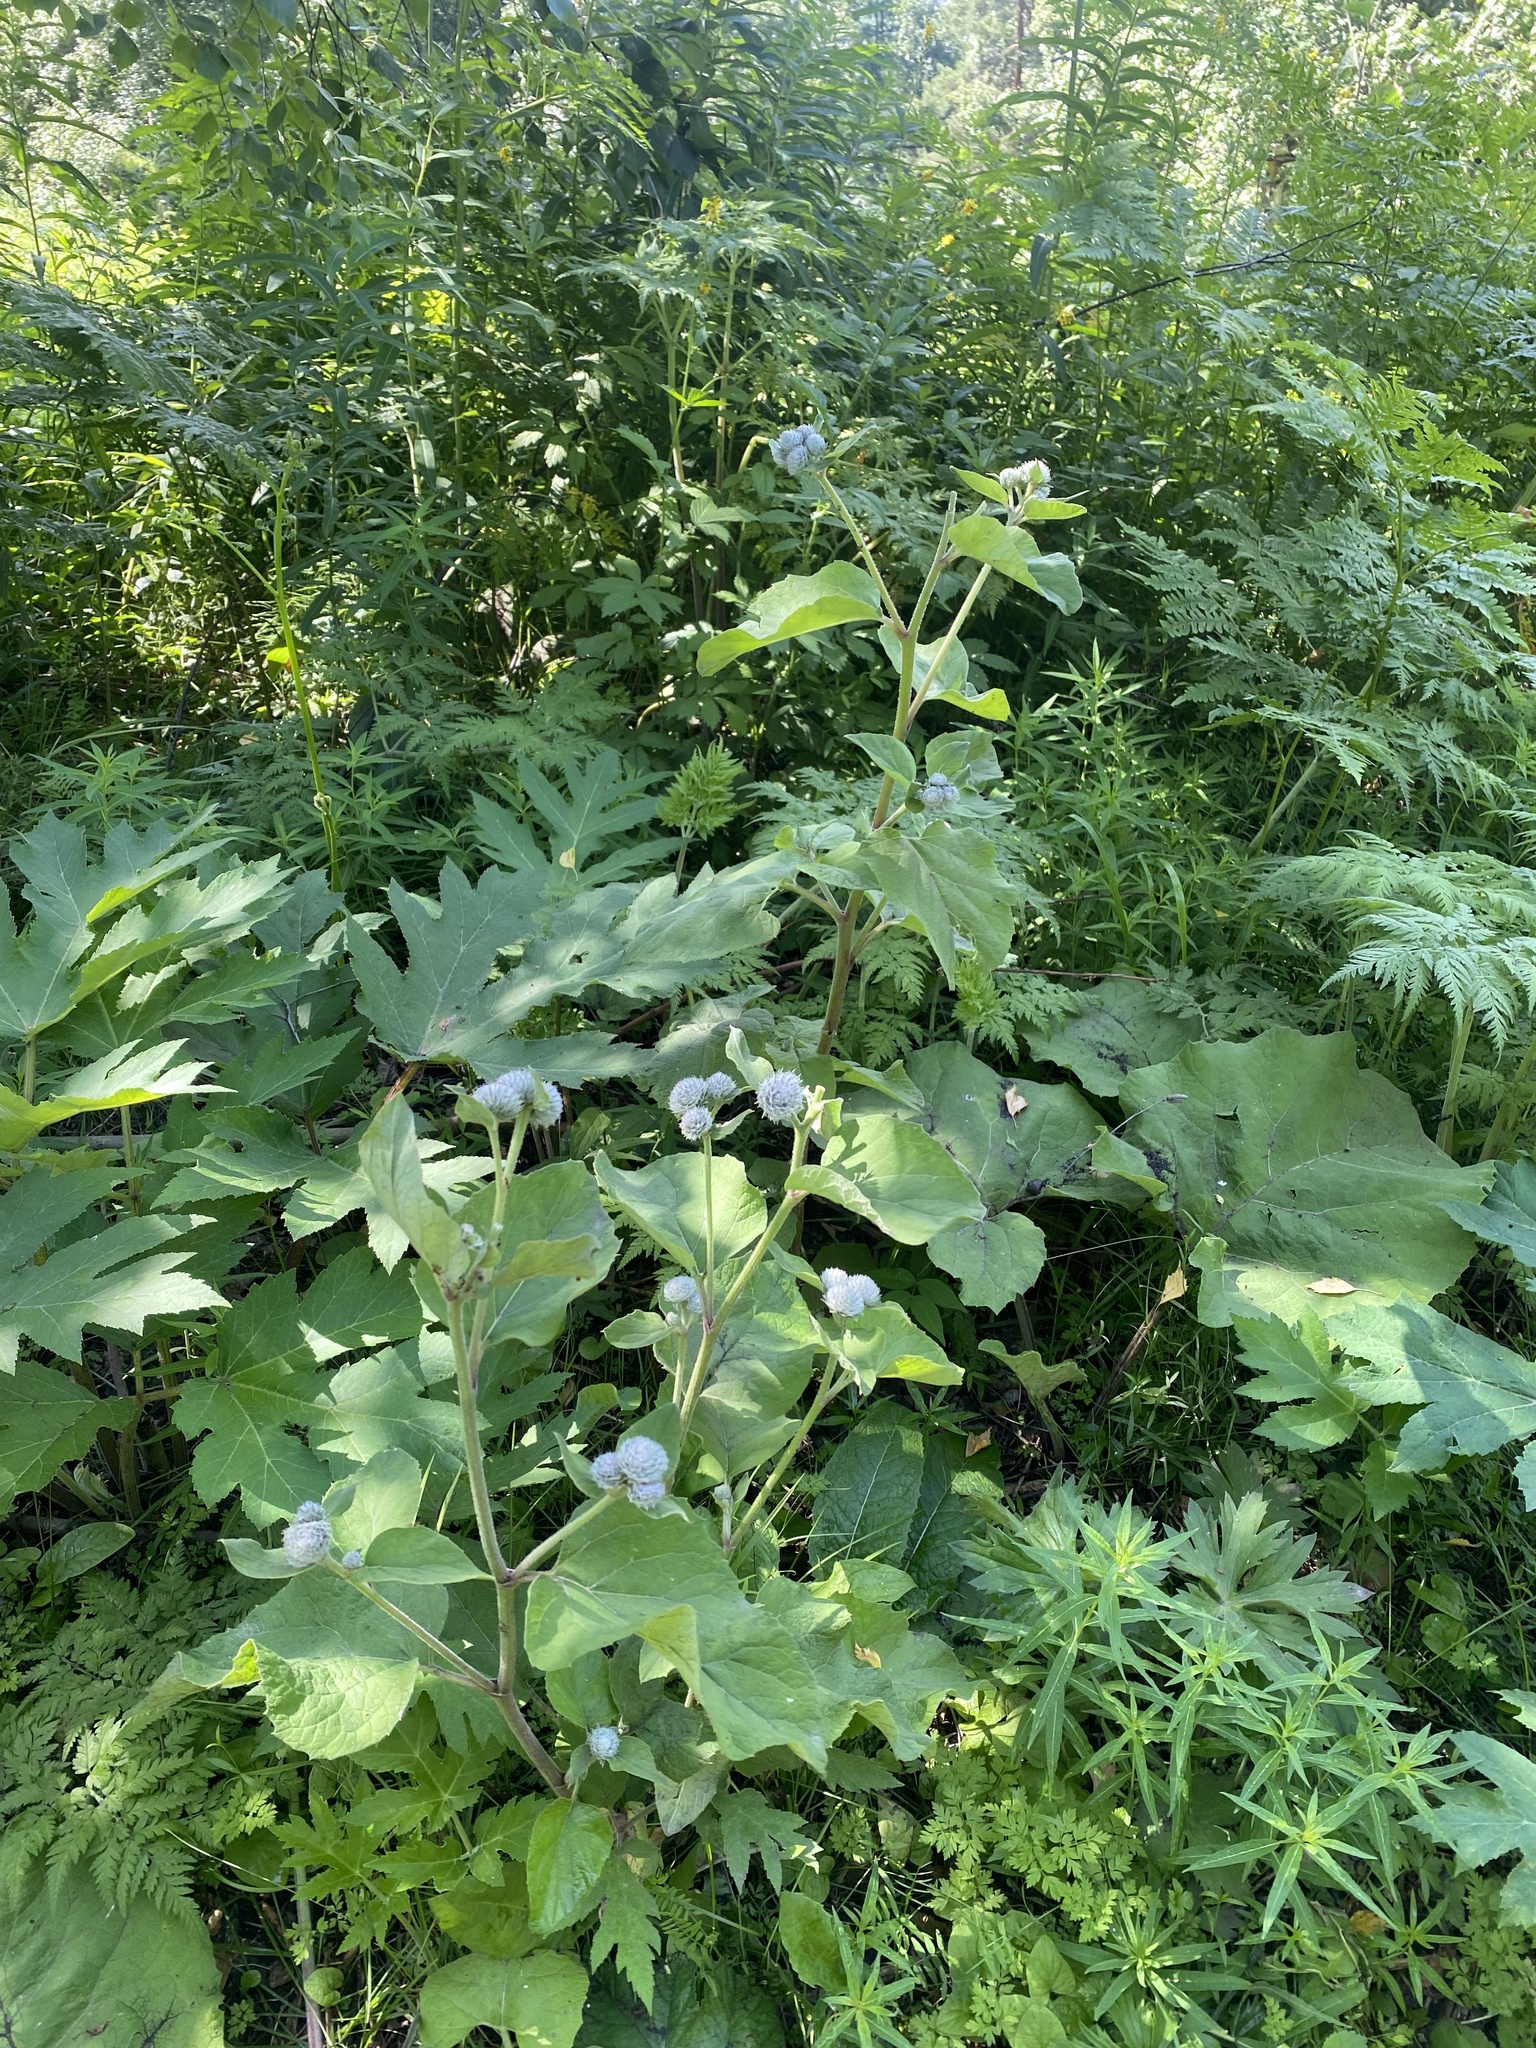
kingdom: Plantae
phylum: Tracheophyta
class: Magnoliopsida
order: Asterales
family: Asteraceae
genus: Arctium
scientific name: Arctium tomentosum
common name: Woolly burdock
